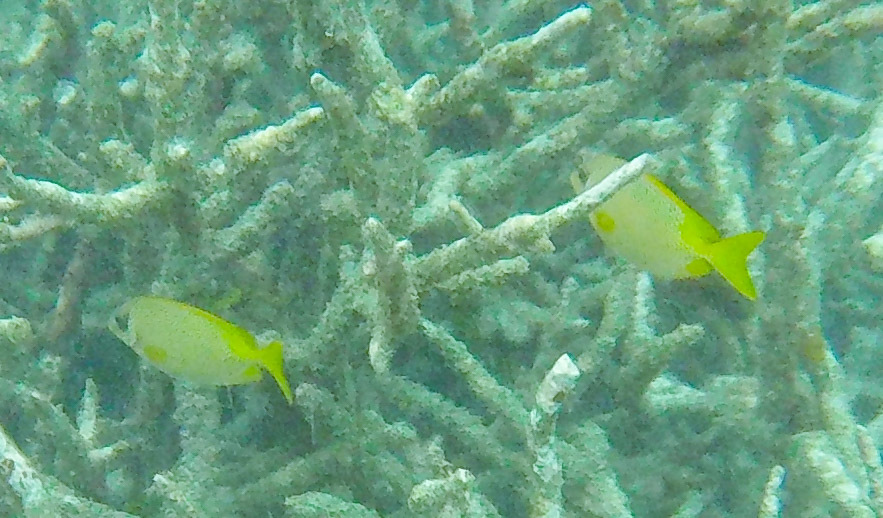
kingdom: Animalia
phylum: Chordata
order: Perciformes
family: Siganidae
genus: Siganus
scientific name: Siganus corallinus
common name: Coral rabbitfish
